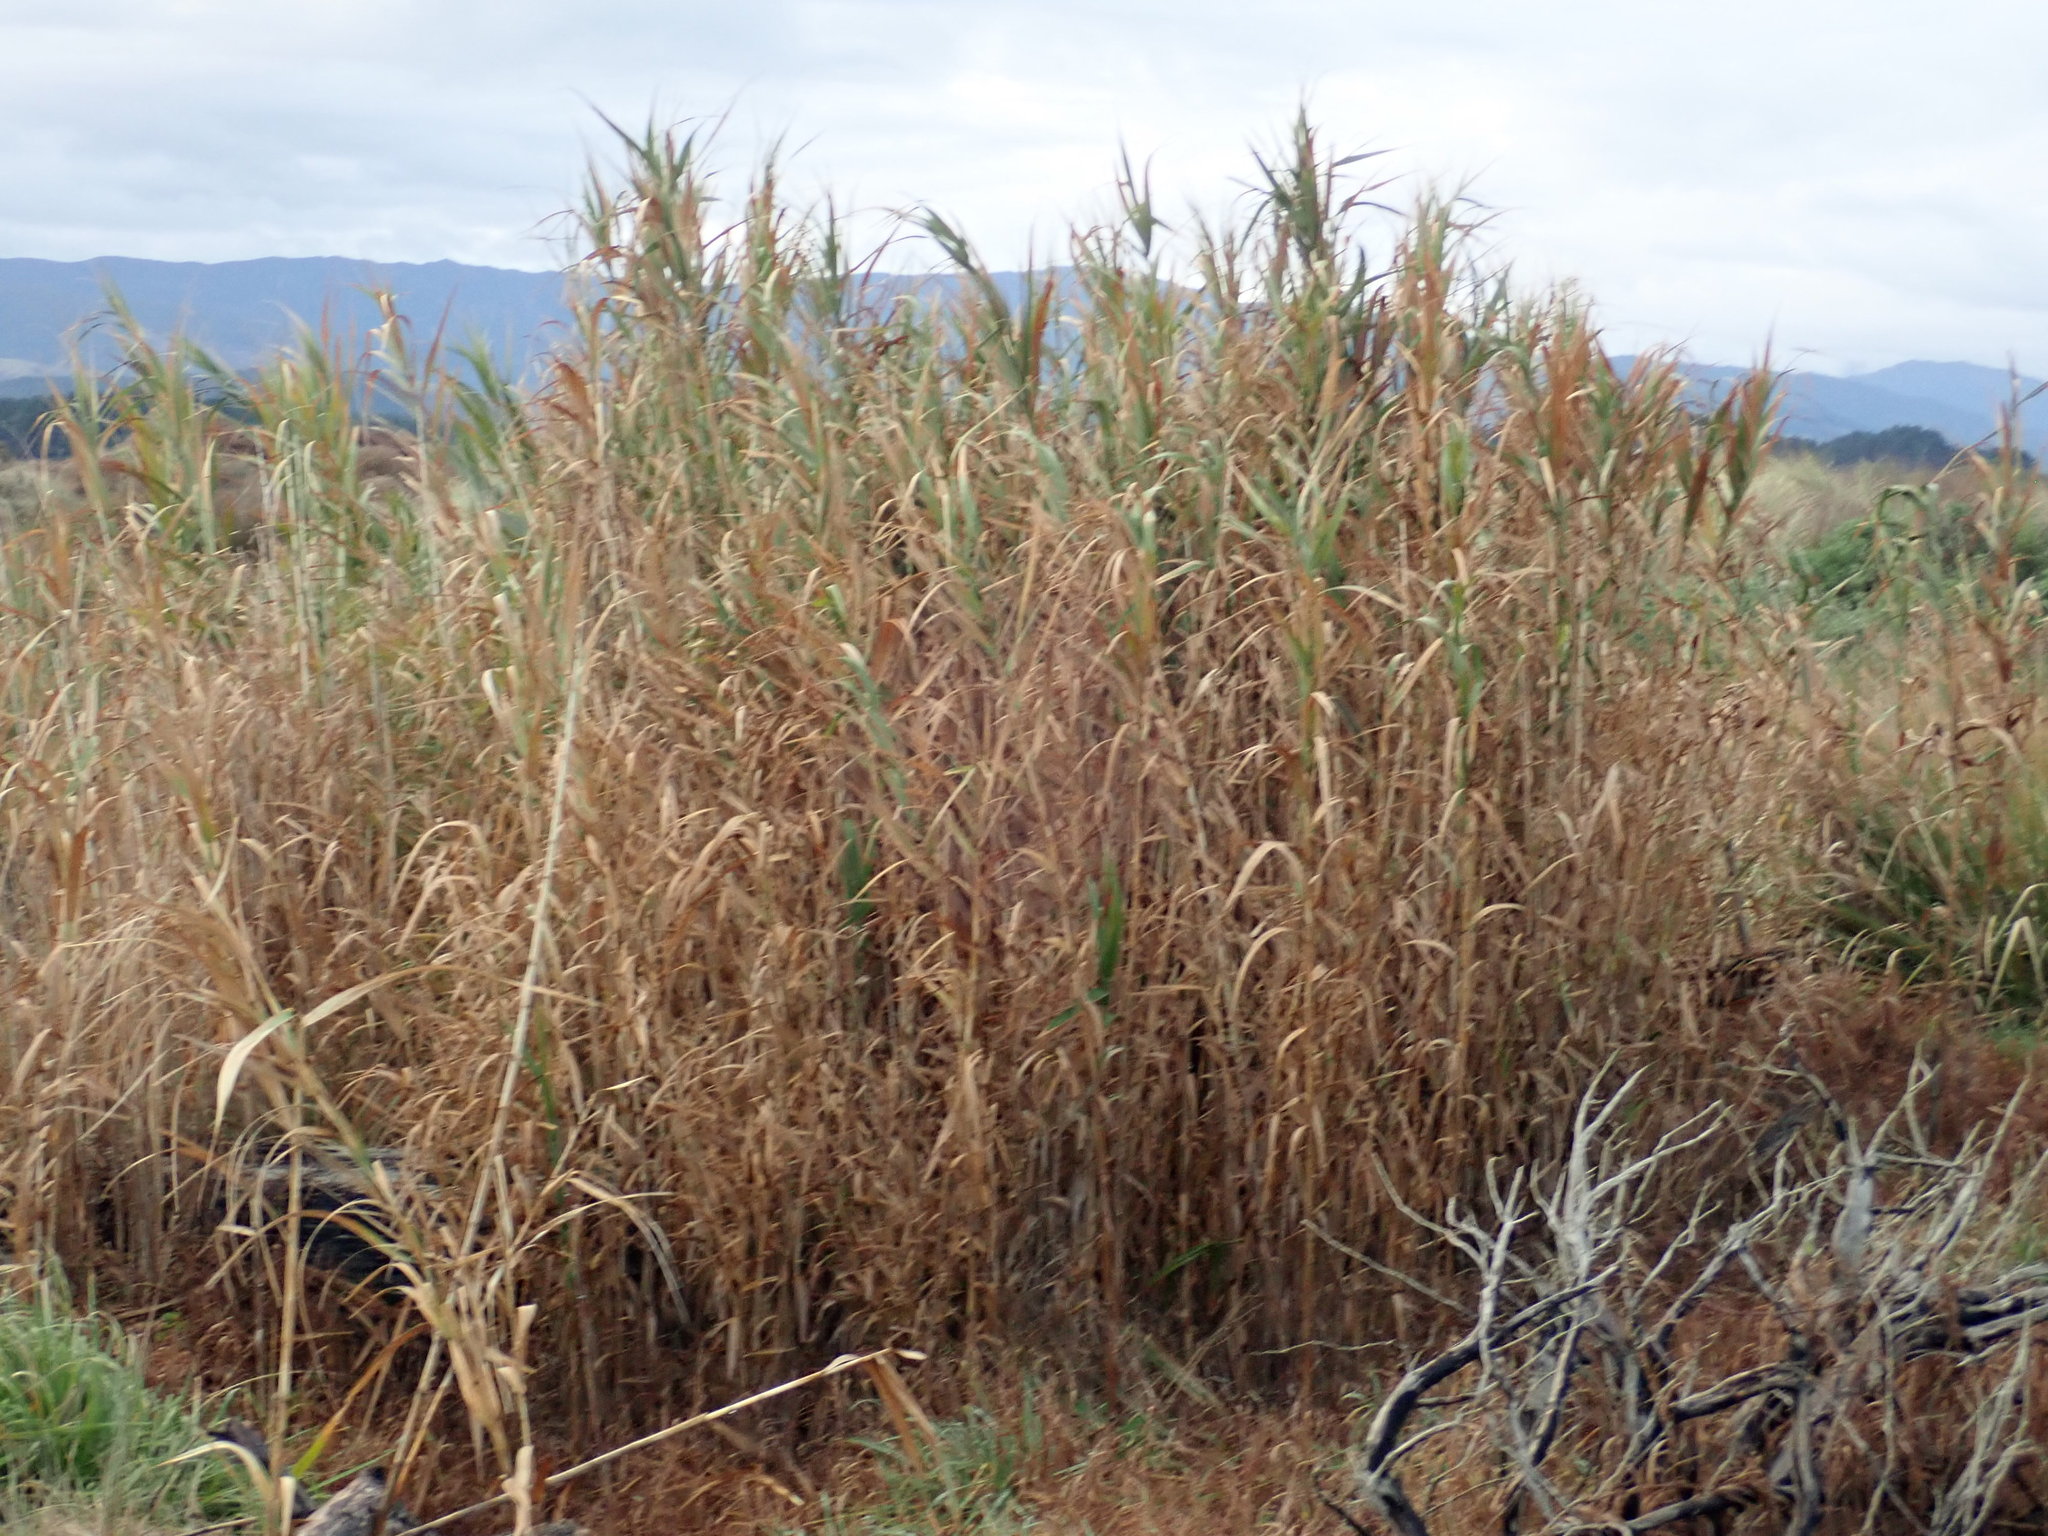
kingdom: Plantae
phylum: Tracheophyta
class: Liliopsida
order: Poales
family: Poaceae
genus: Arundo
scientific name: Arundo donax
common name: Giant reed
